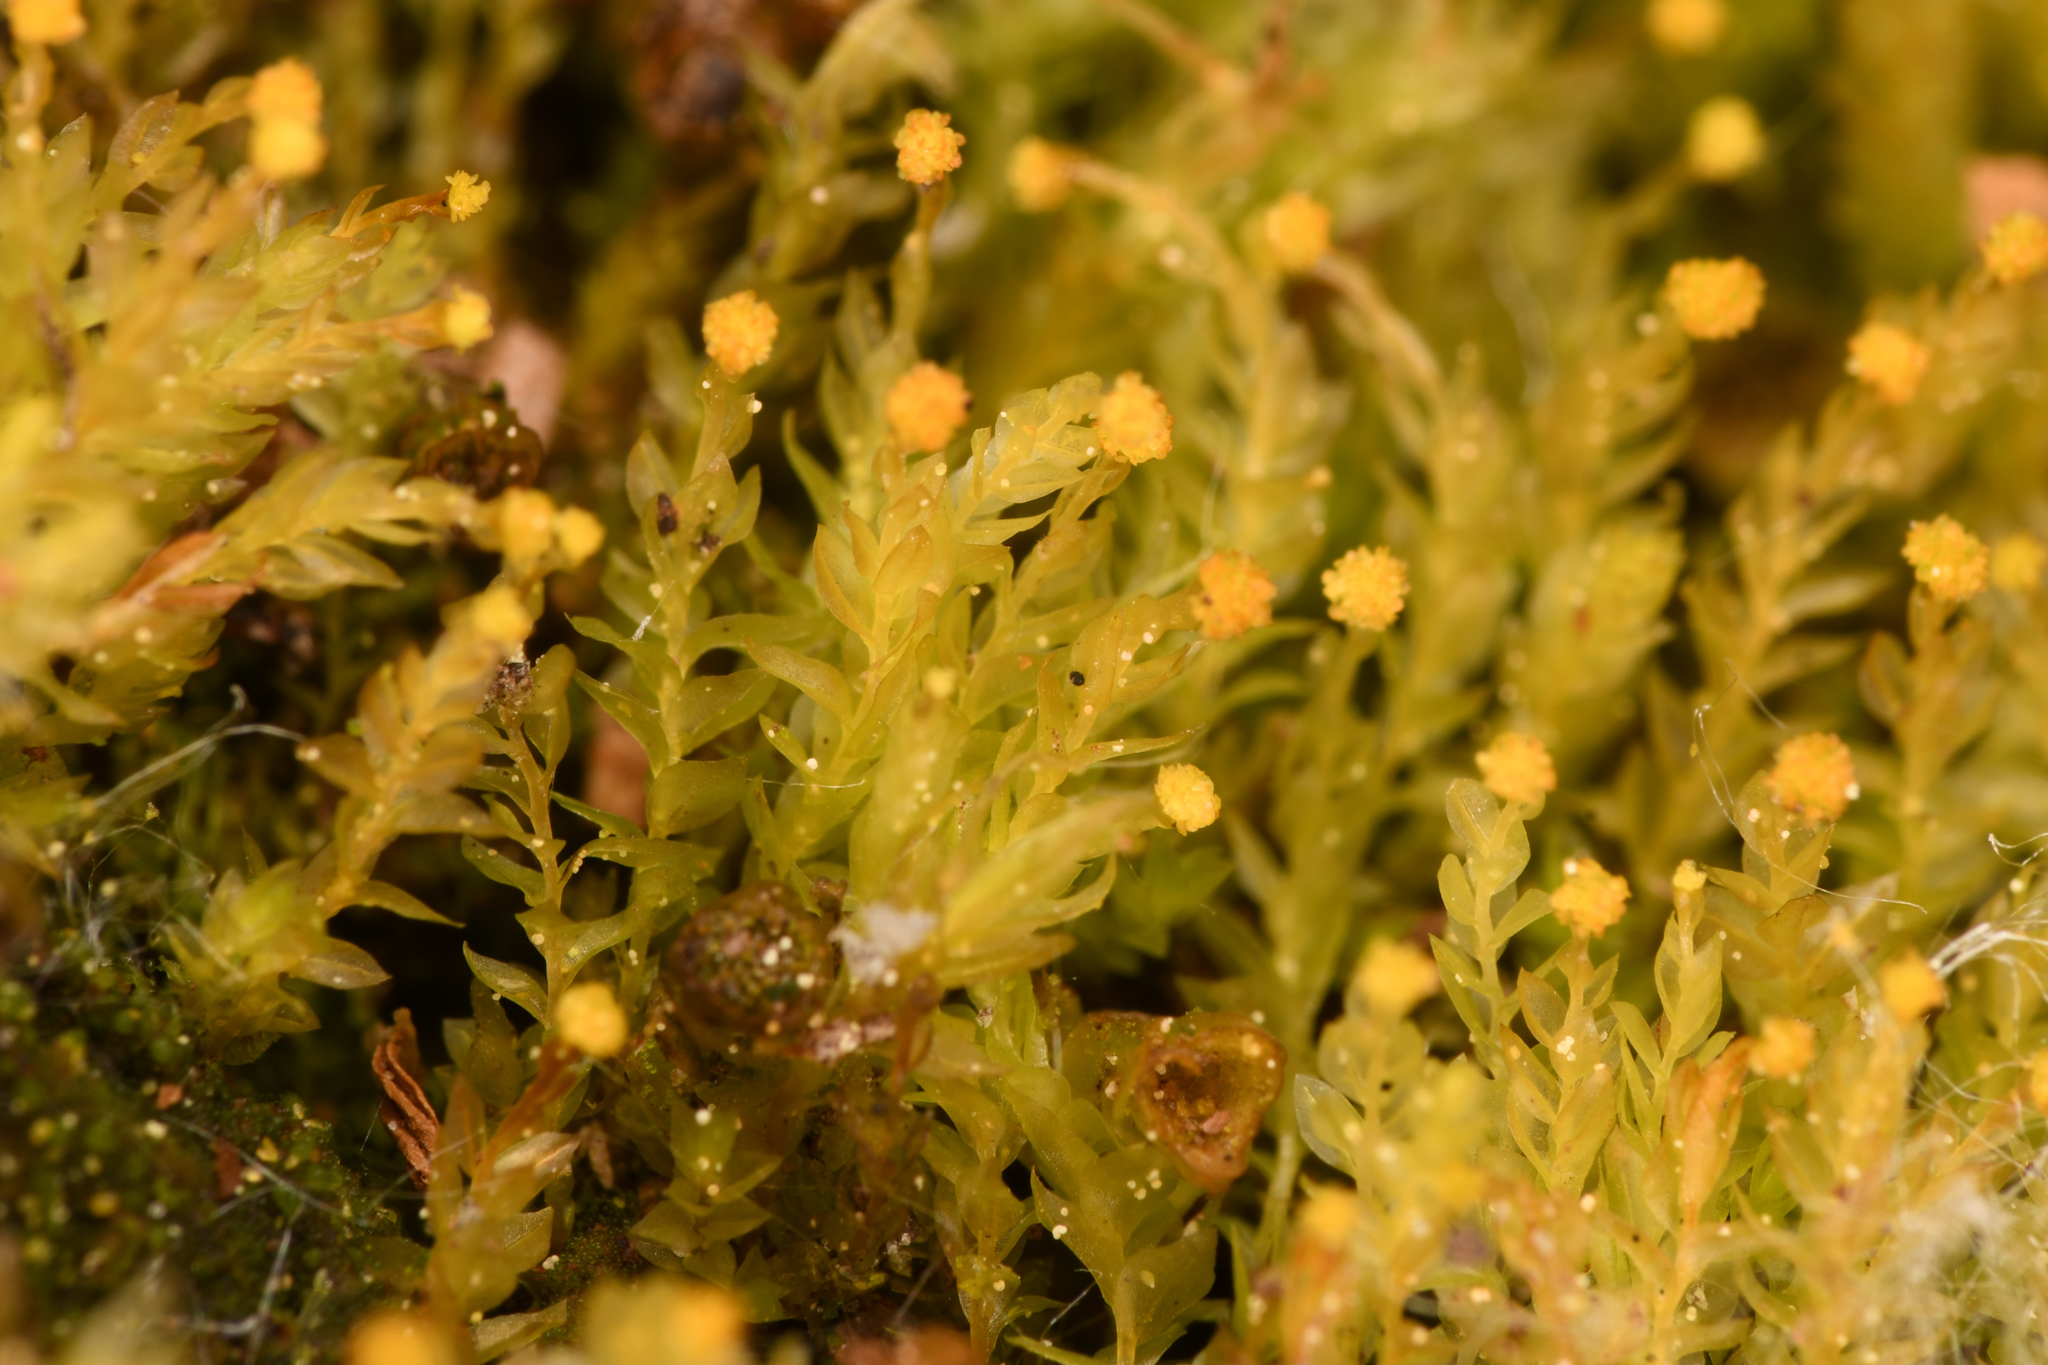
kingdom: Plantae
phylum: Bryophyta
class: Polytrichopsida
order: Tetraphidales
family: Tetraphidaceae
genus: Tetraphis
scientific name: Tetraphis pellucida
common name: Common four-toothed moss
